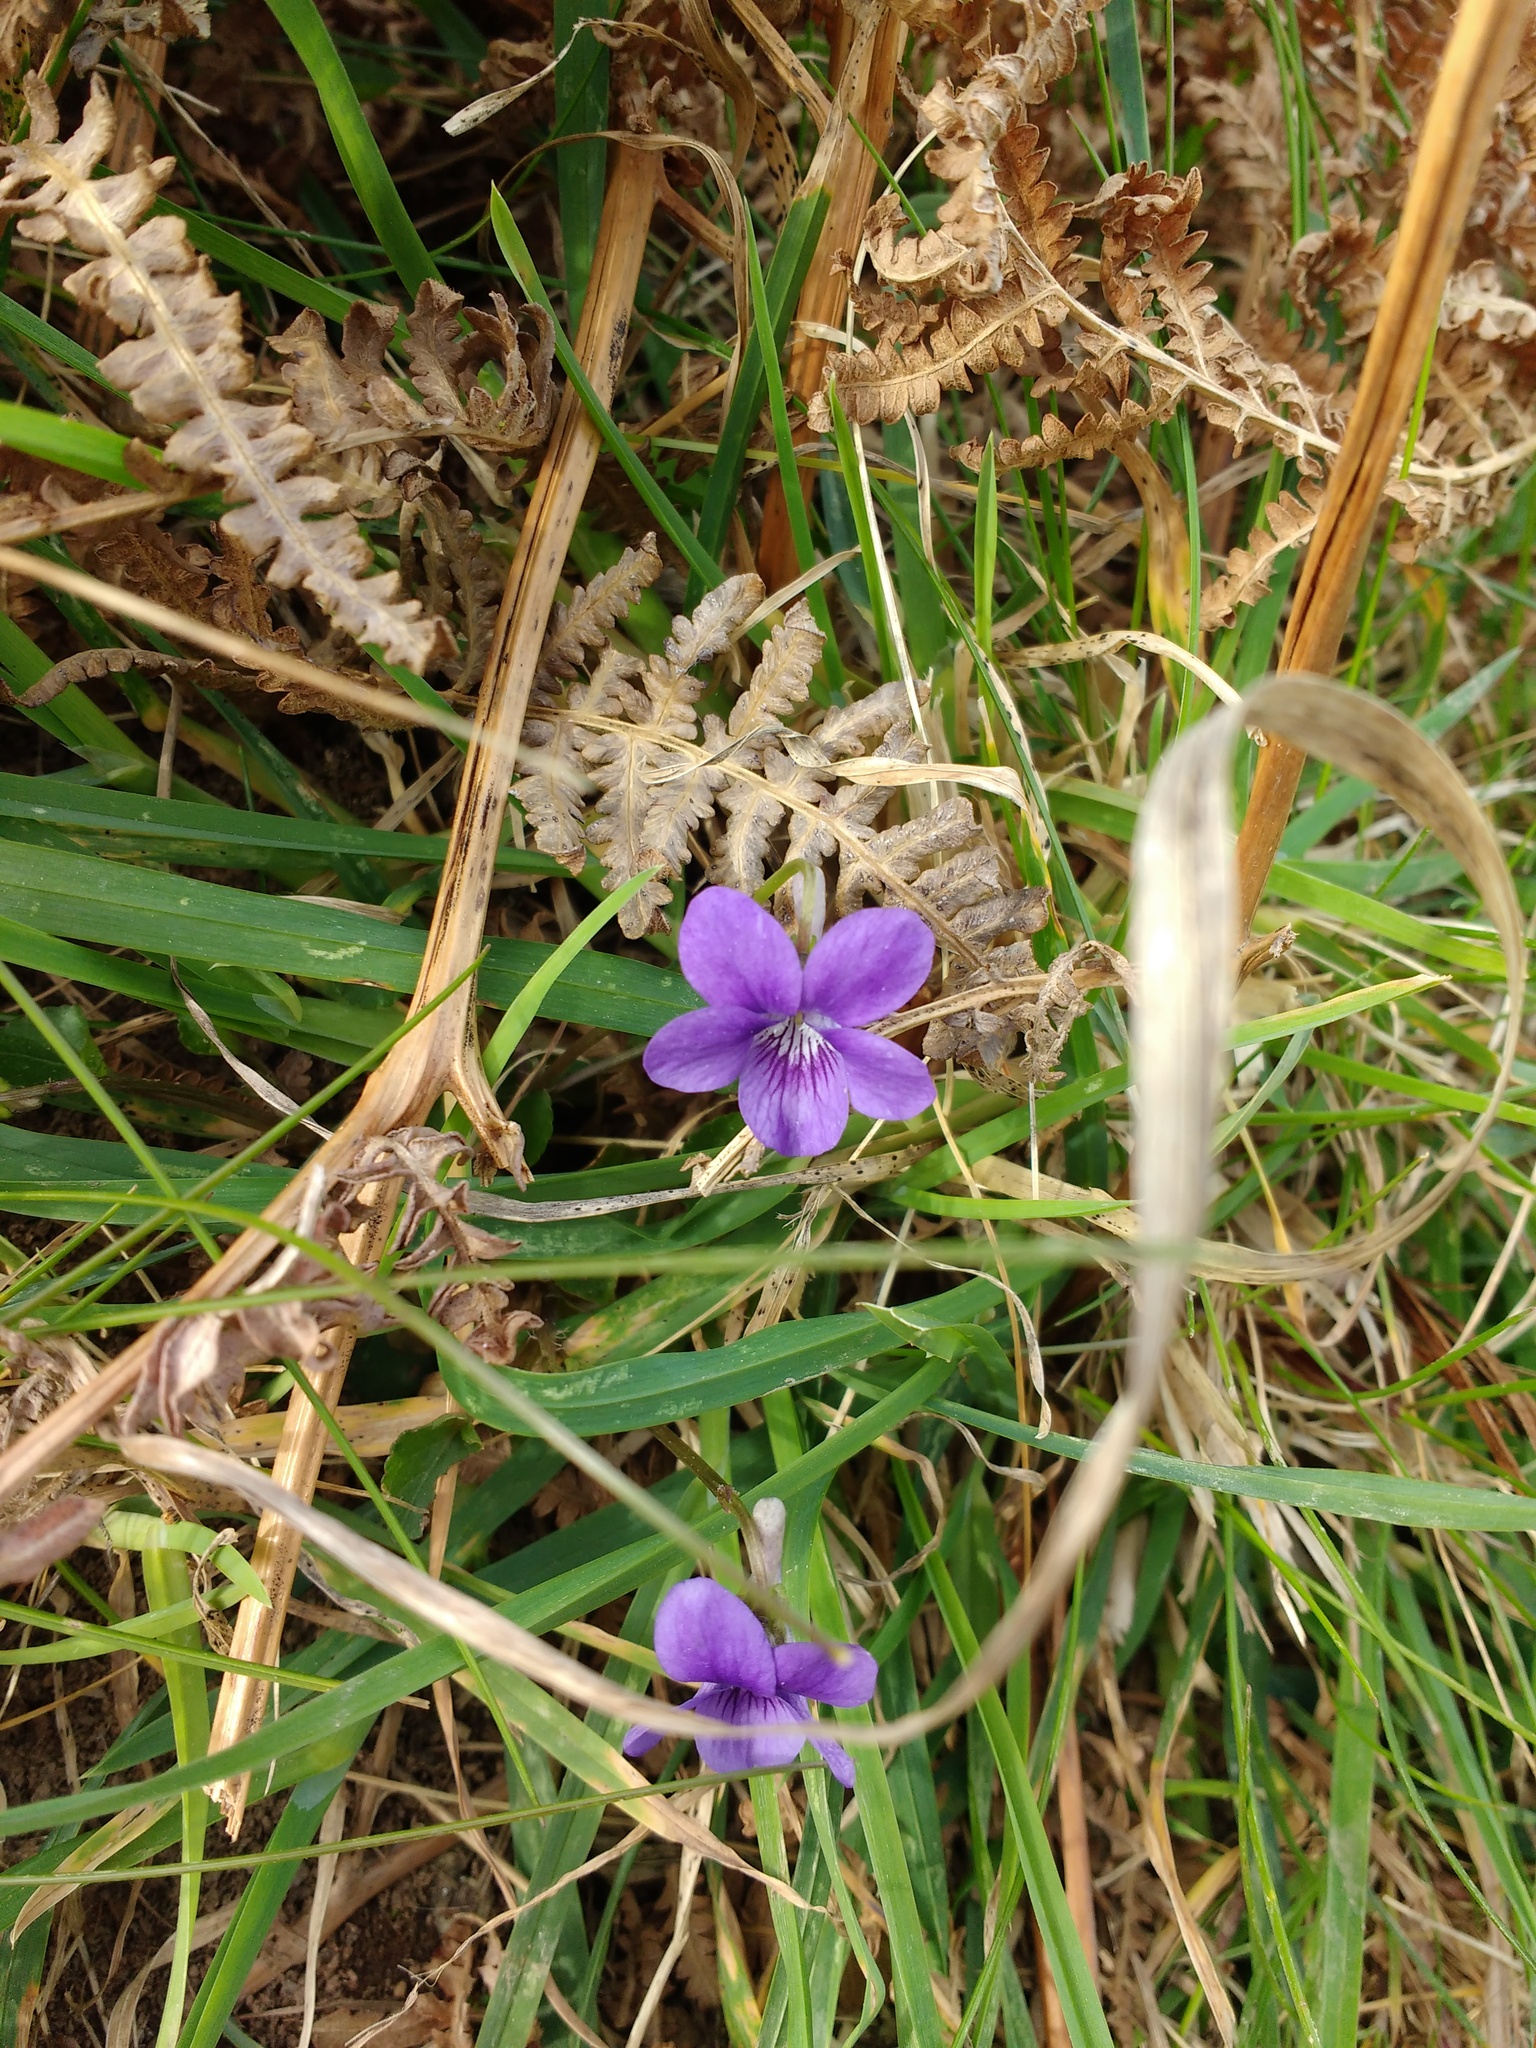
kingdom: Plantae
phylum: Tracheophyta
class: Magnoliopsida
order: Malpighiales
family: Violaceae
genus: Viola
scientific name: Viola riviniana
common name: Common dog-violet
